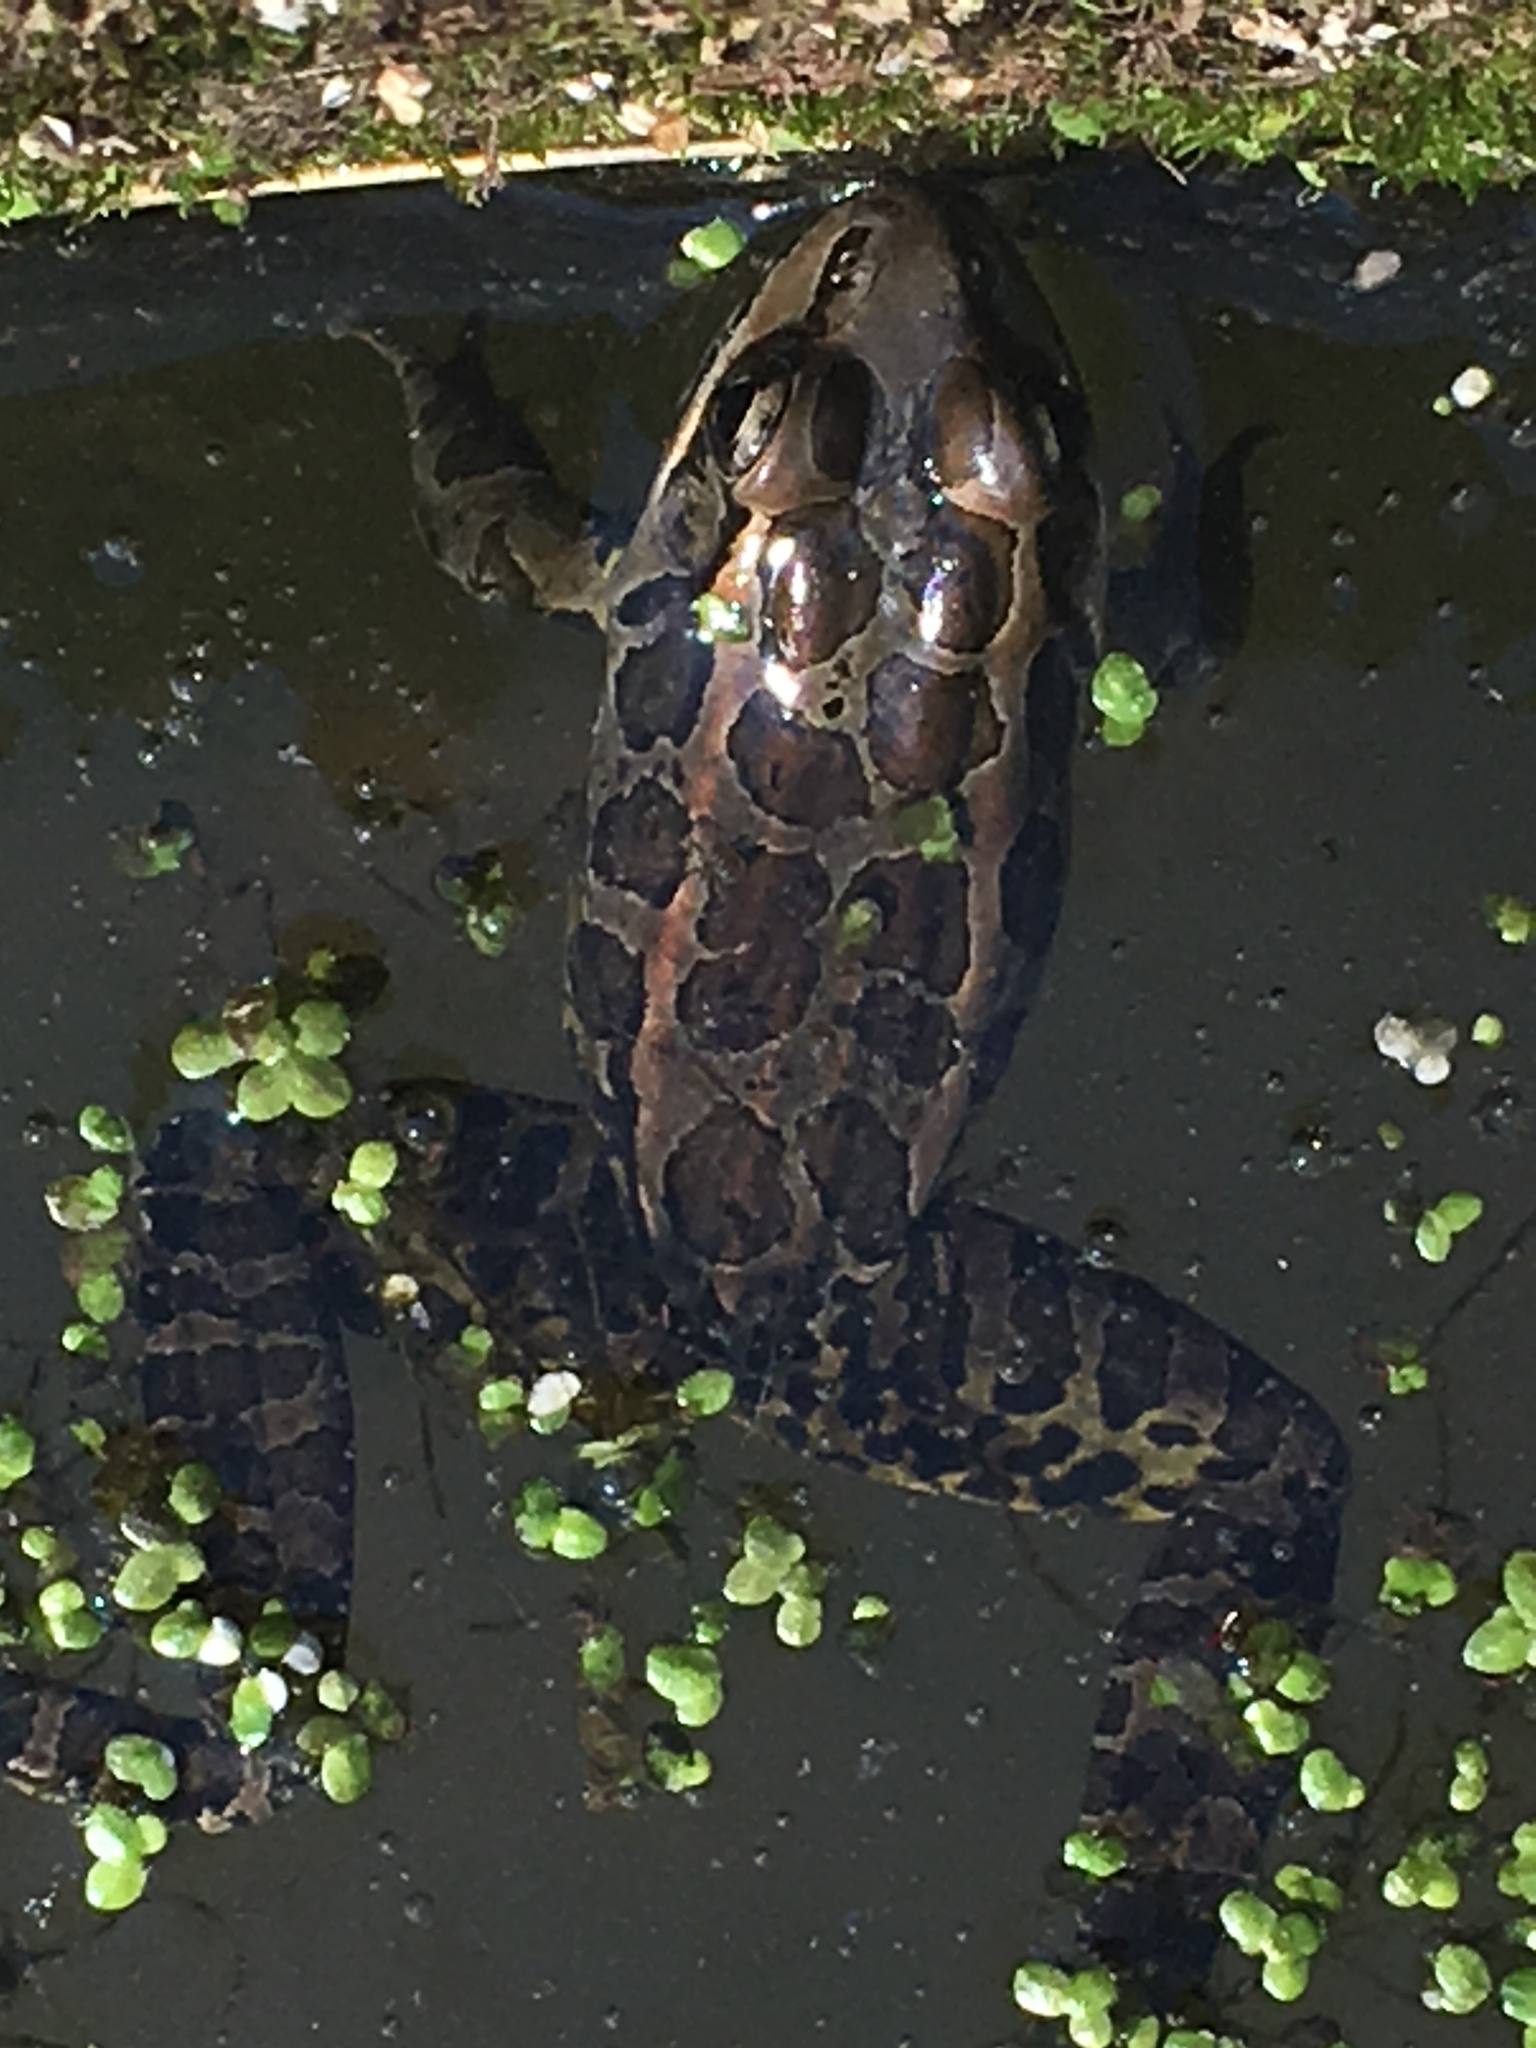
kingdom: Animalia
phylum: Chordata
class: Amphibia
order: Anura
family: Ranidae
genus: Lithobates
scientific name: Lithobates palustris
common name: Pickerel frog
